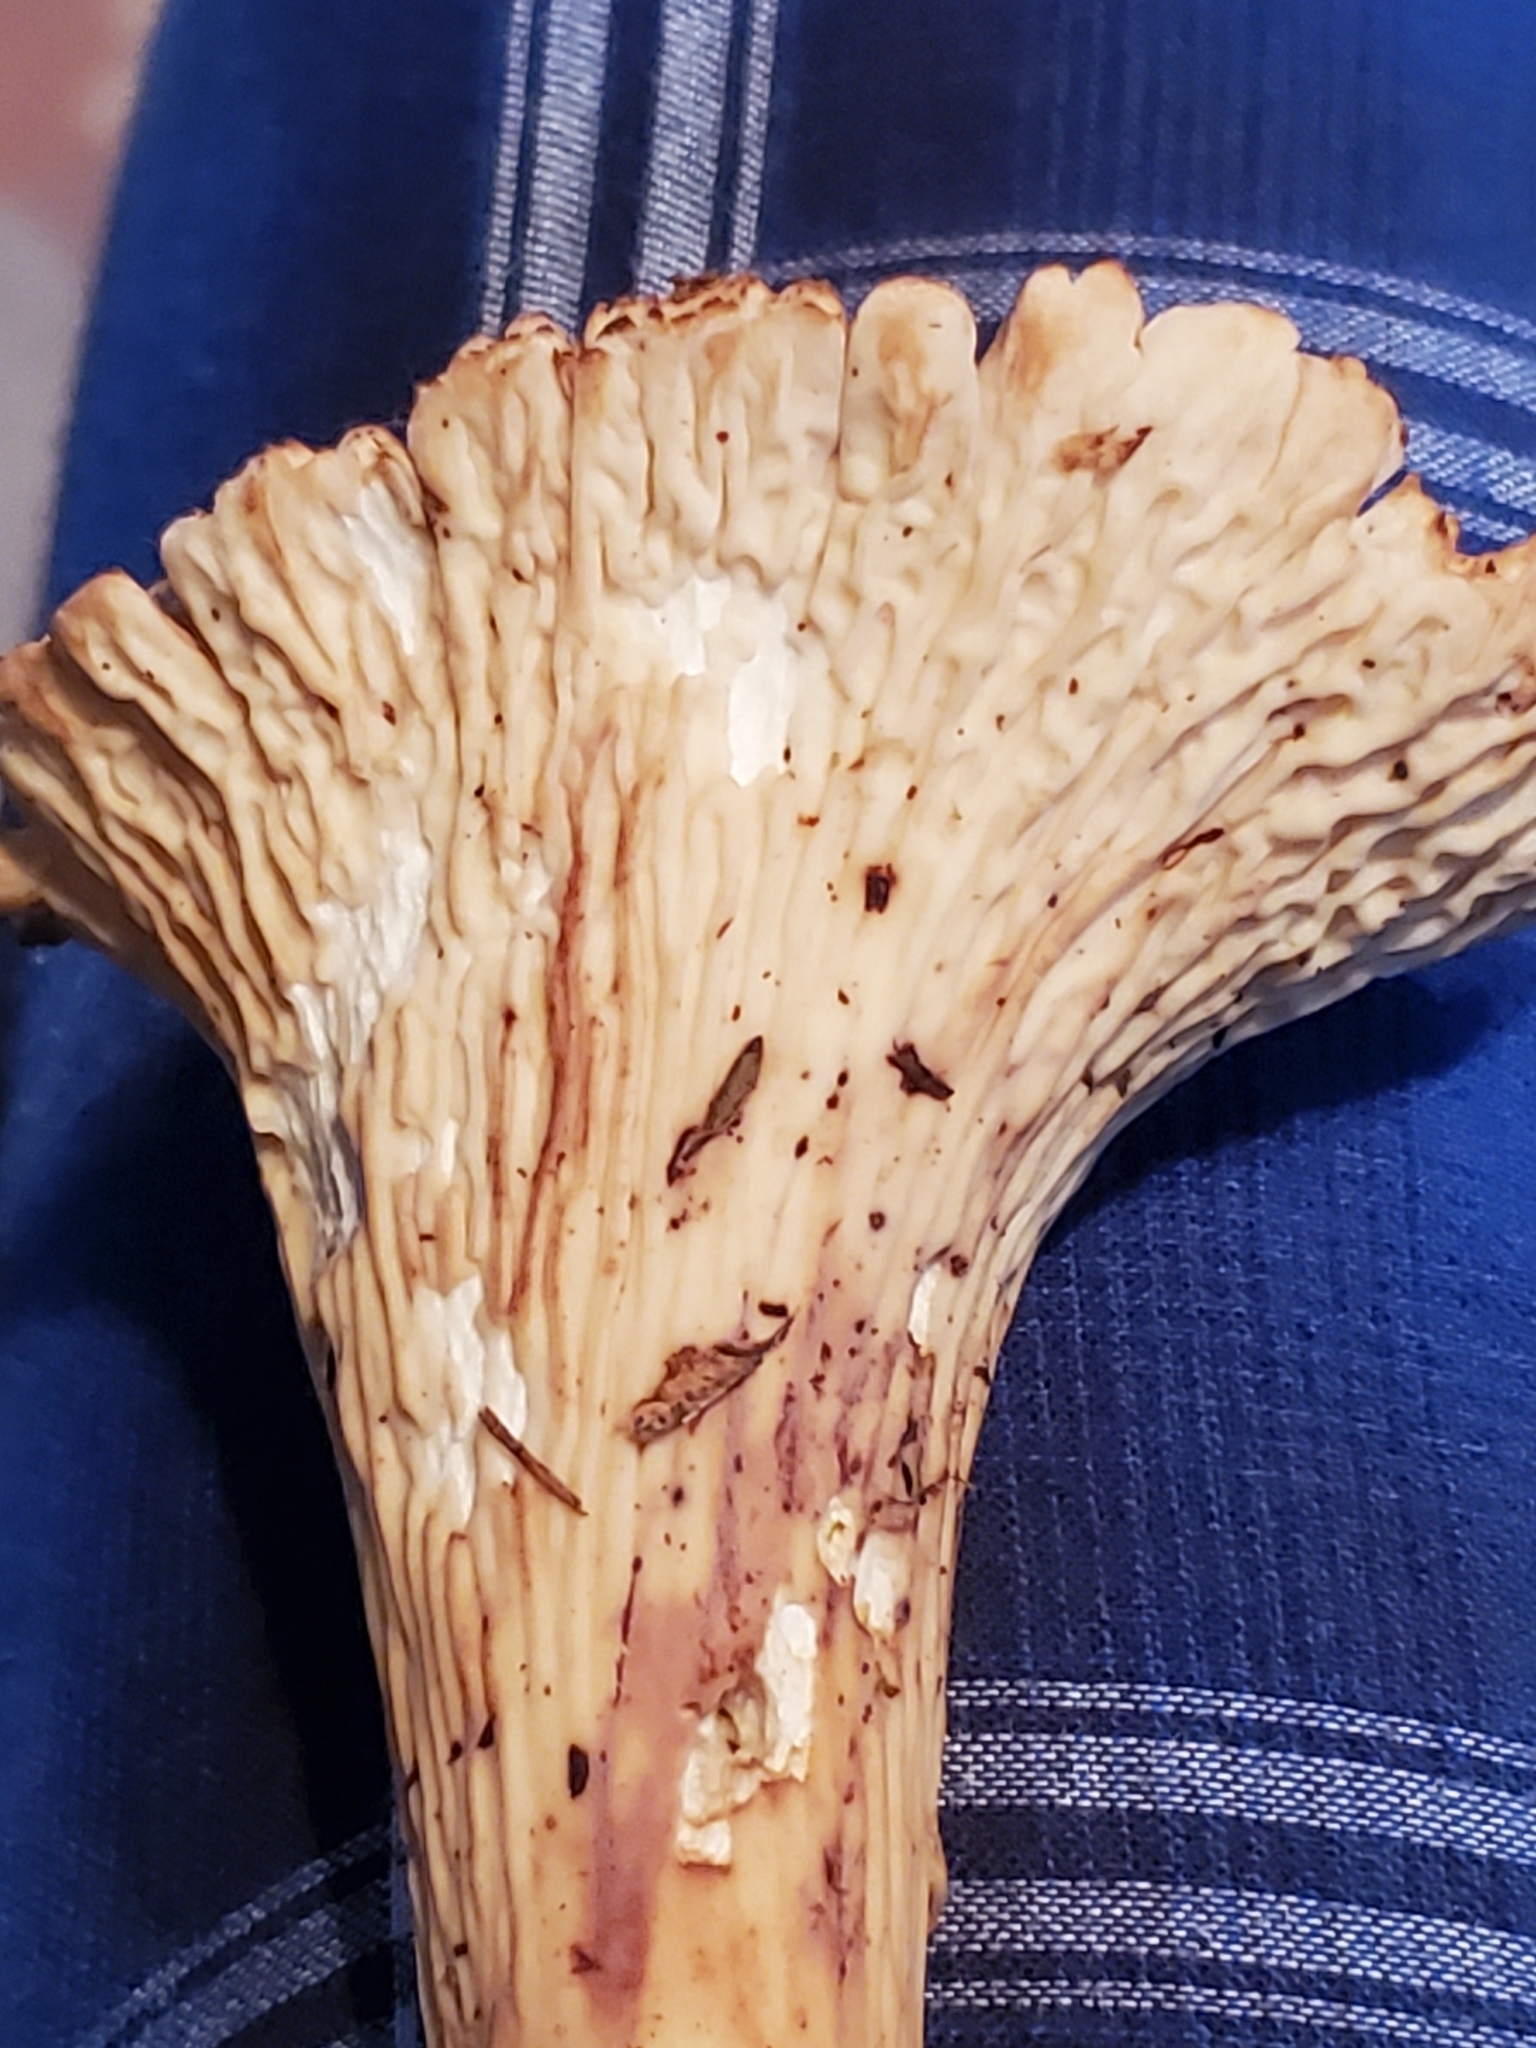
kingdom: Fungi
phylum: Basidiomycota
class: Agaricomycetes
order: Gomphales
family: Gomphaceae
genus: Turbinellus
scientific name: Turbinellus kauffmanii
